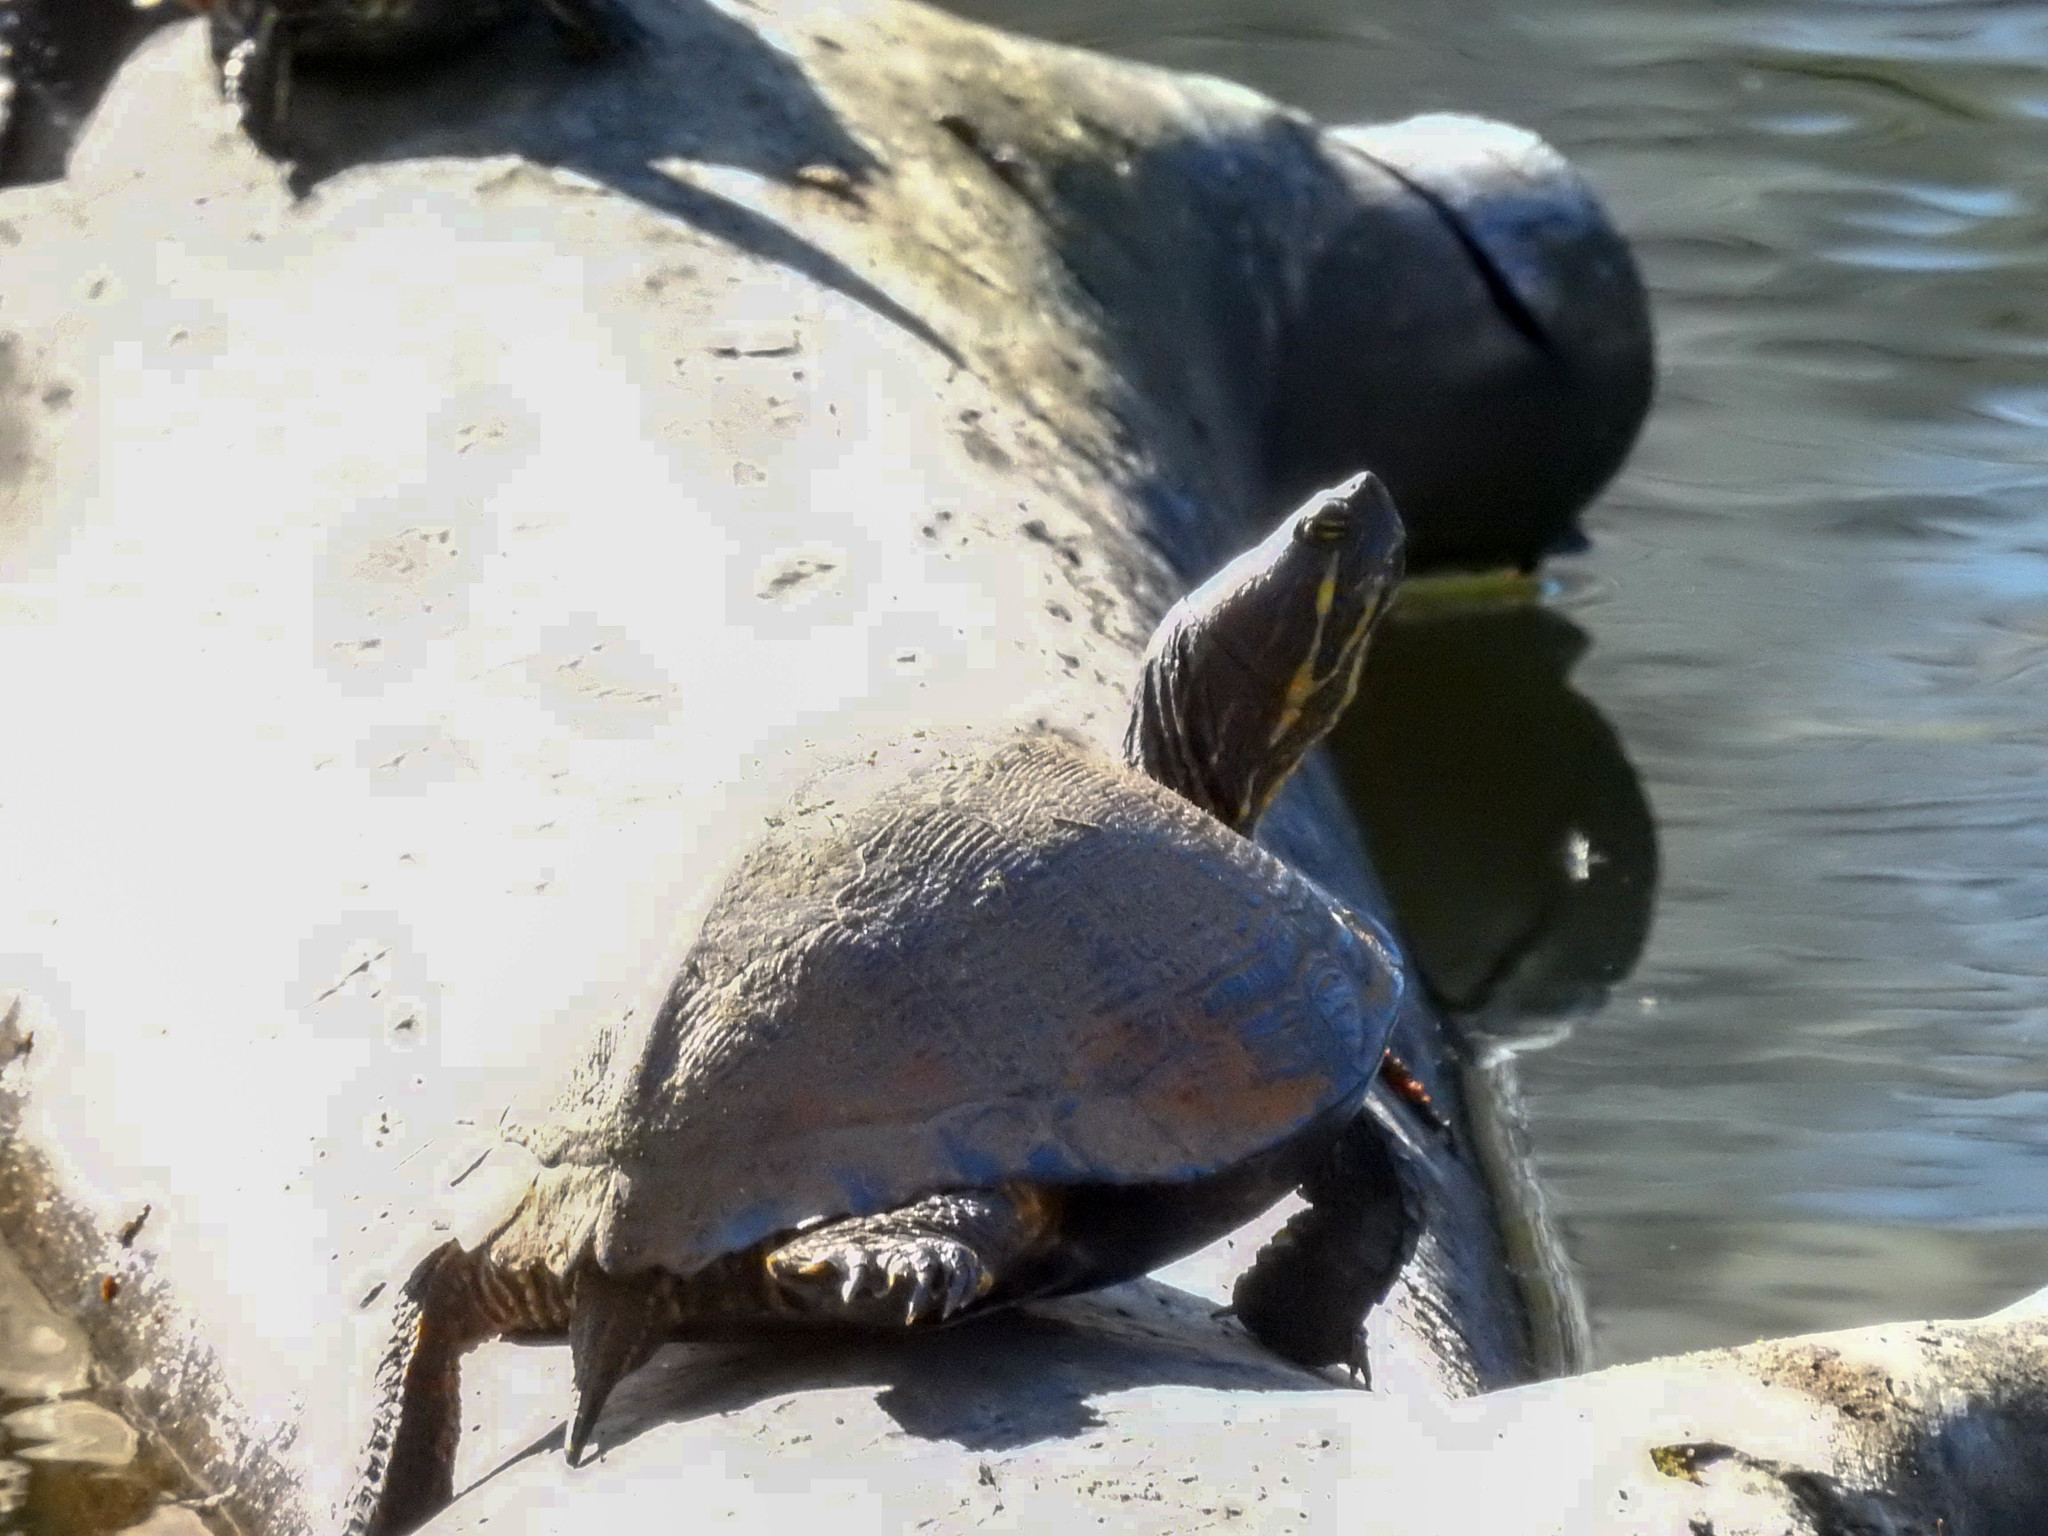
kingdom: Animalia
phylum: Chordata
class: Testudines
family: Emydidae
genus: Trachemys
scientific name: Trachemys scripta
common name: Slider
